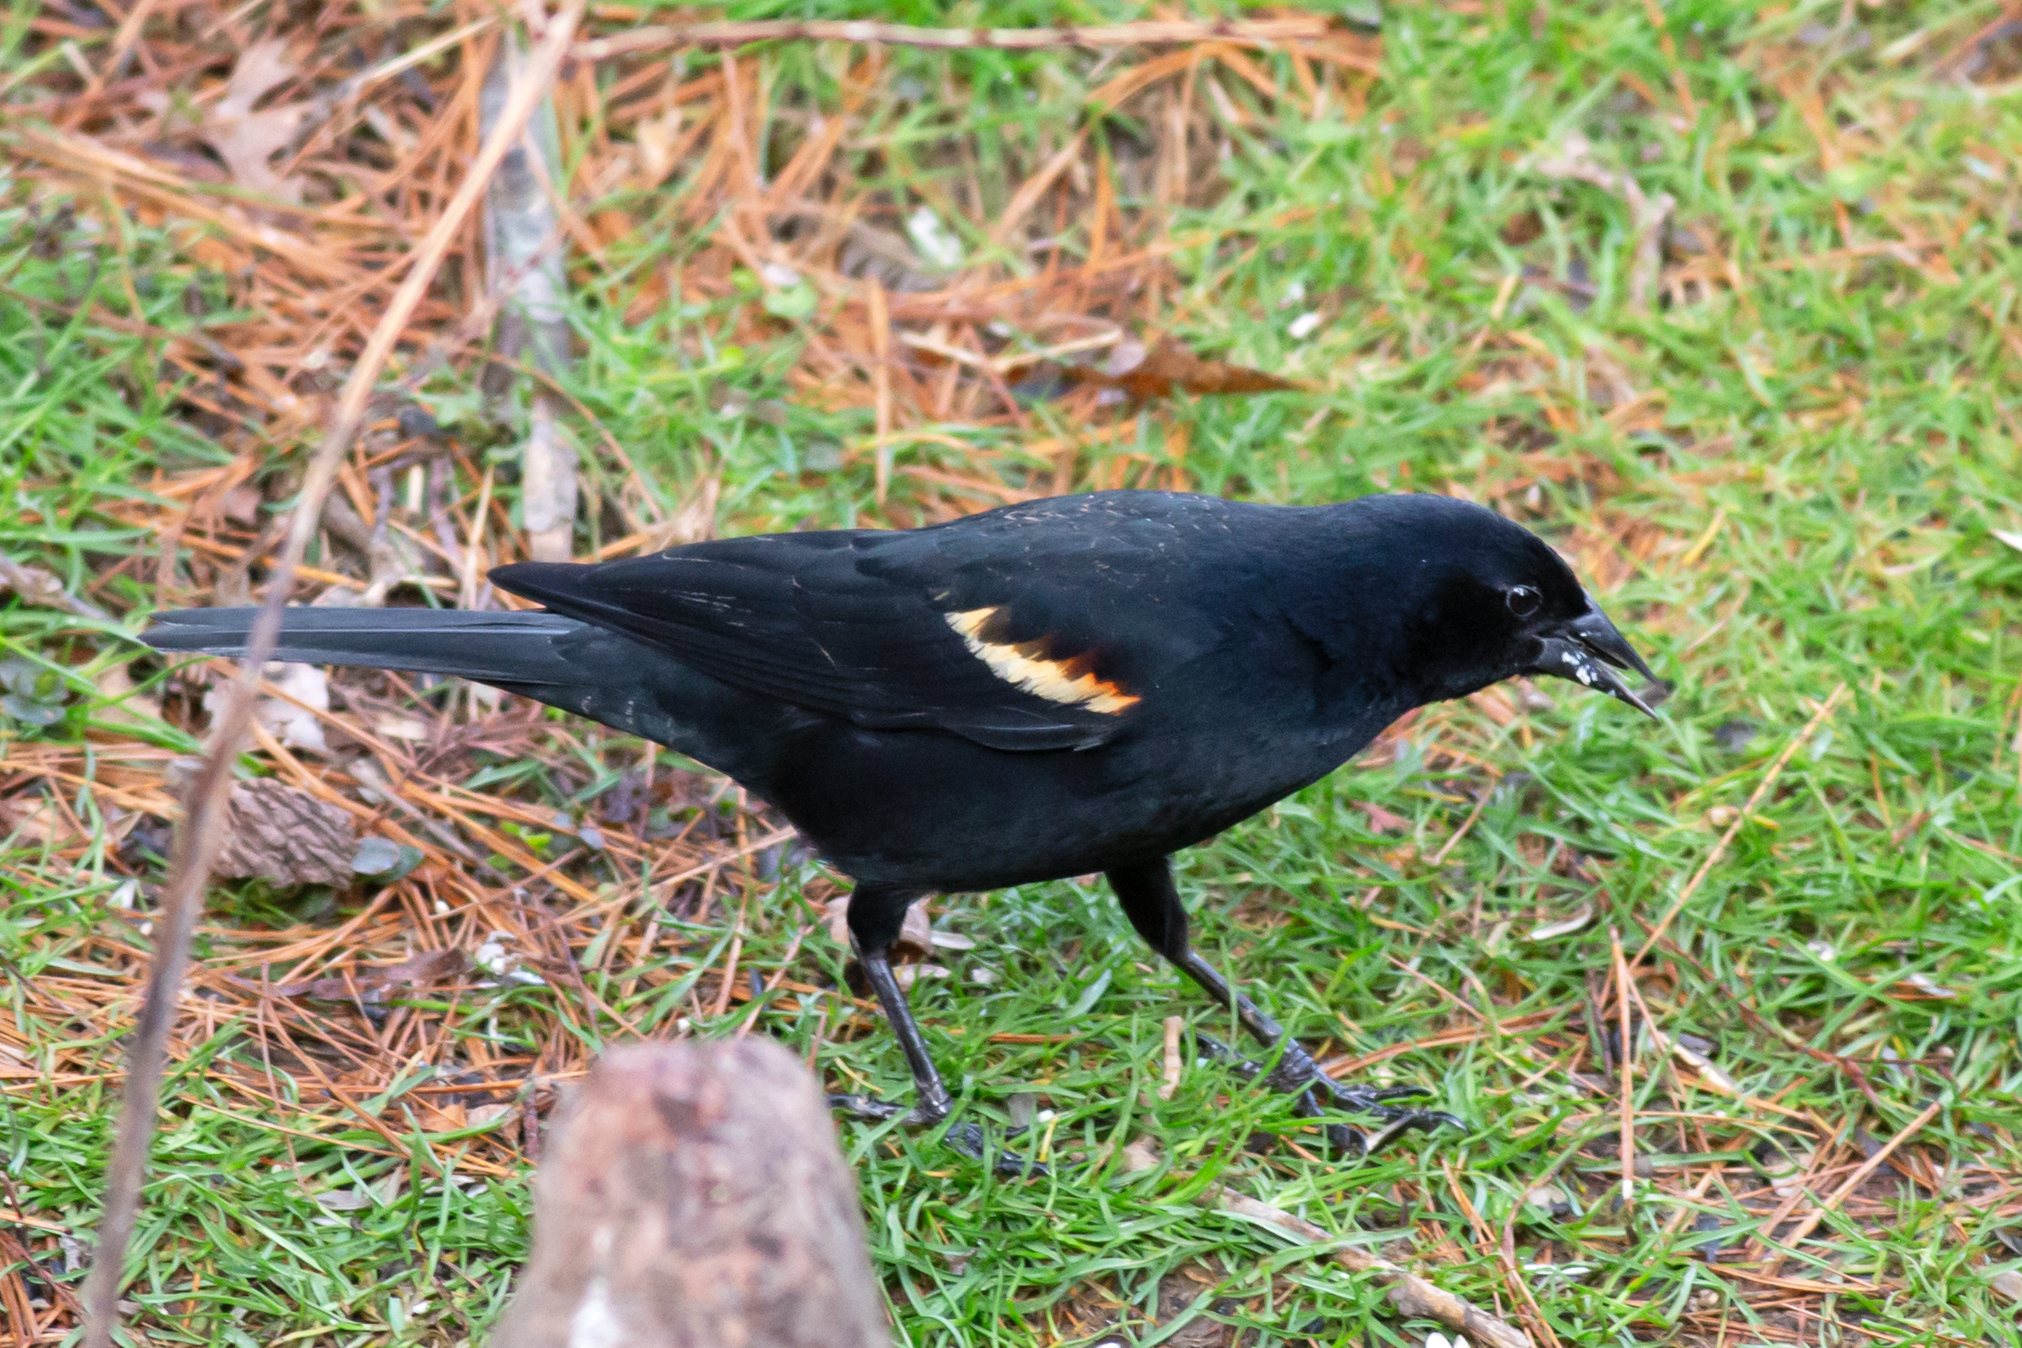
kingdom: Animalia
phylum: Chordata
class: Aves
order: Passeriformes
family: Icteridae
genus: Agelaius
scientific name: Agelaius phoeniceus
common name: Red-winged blackbird
